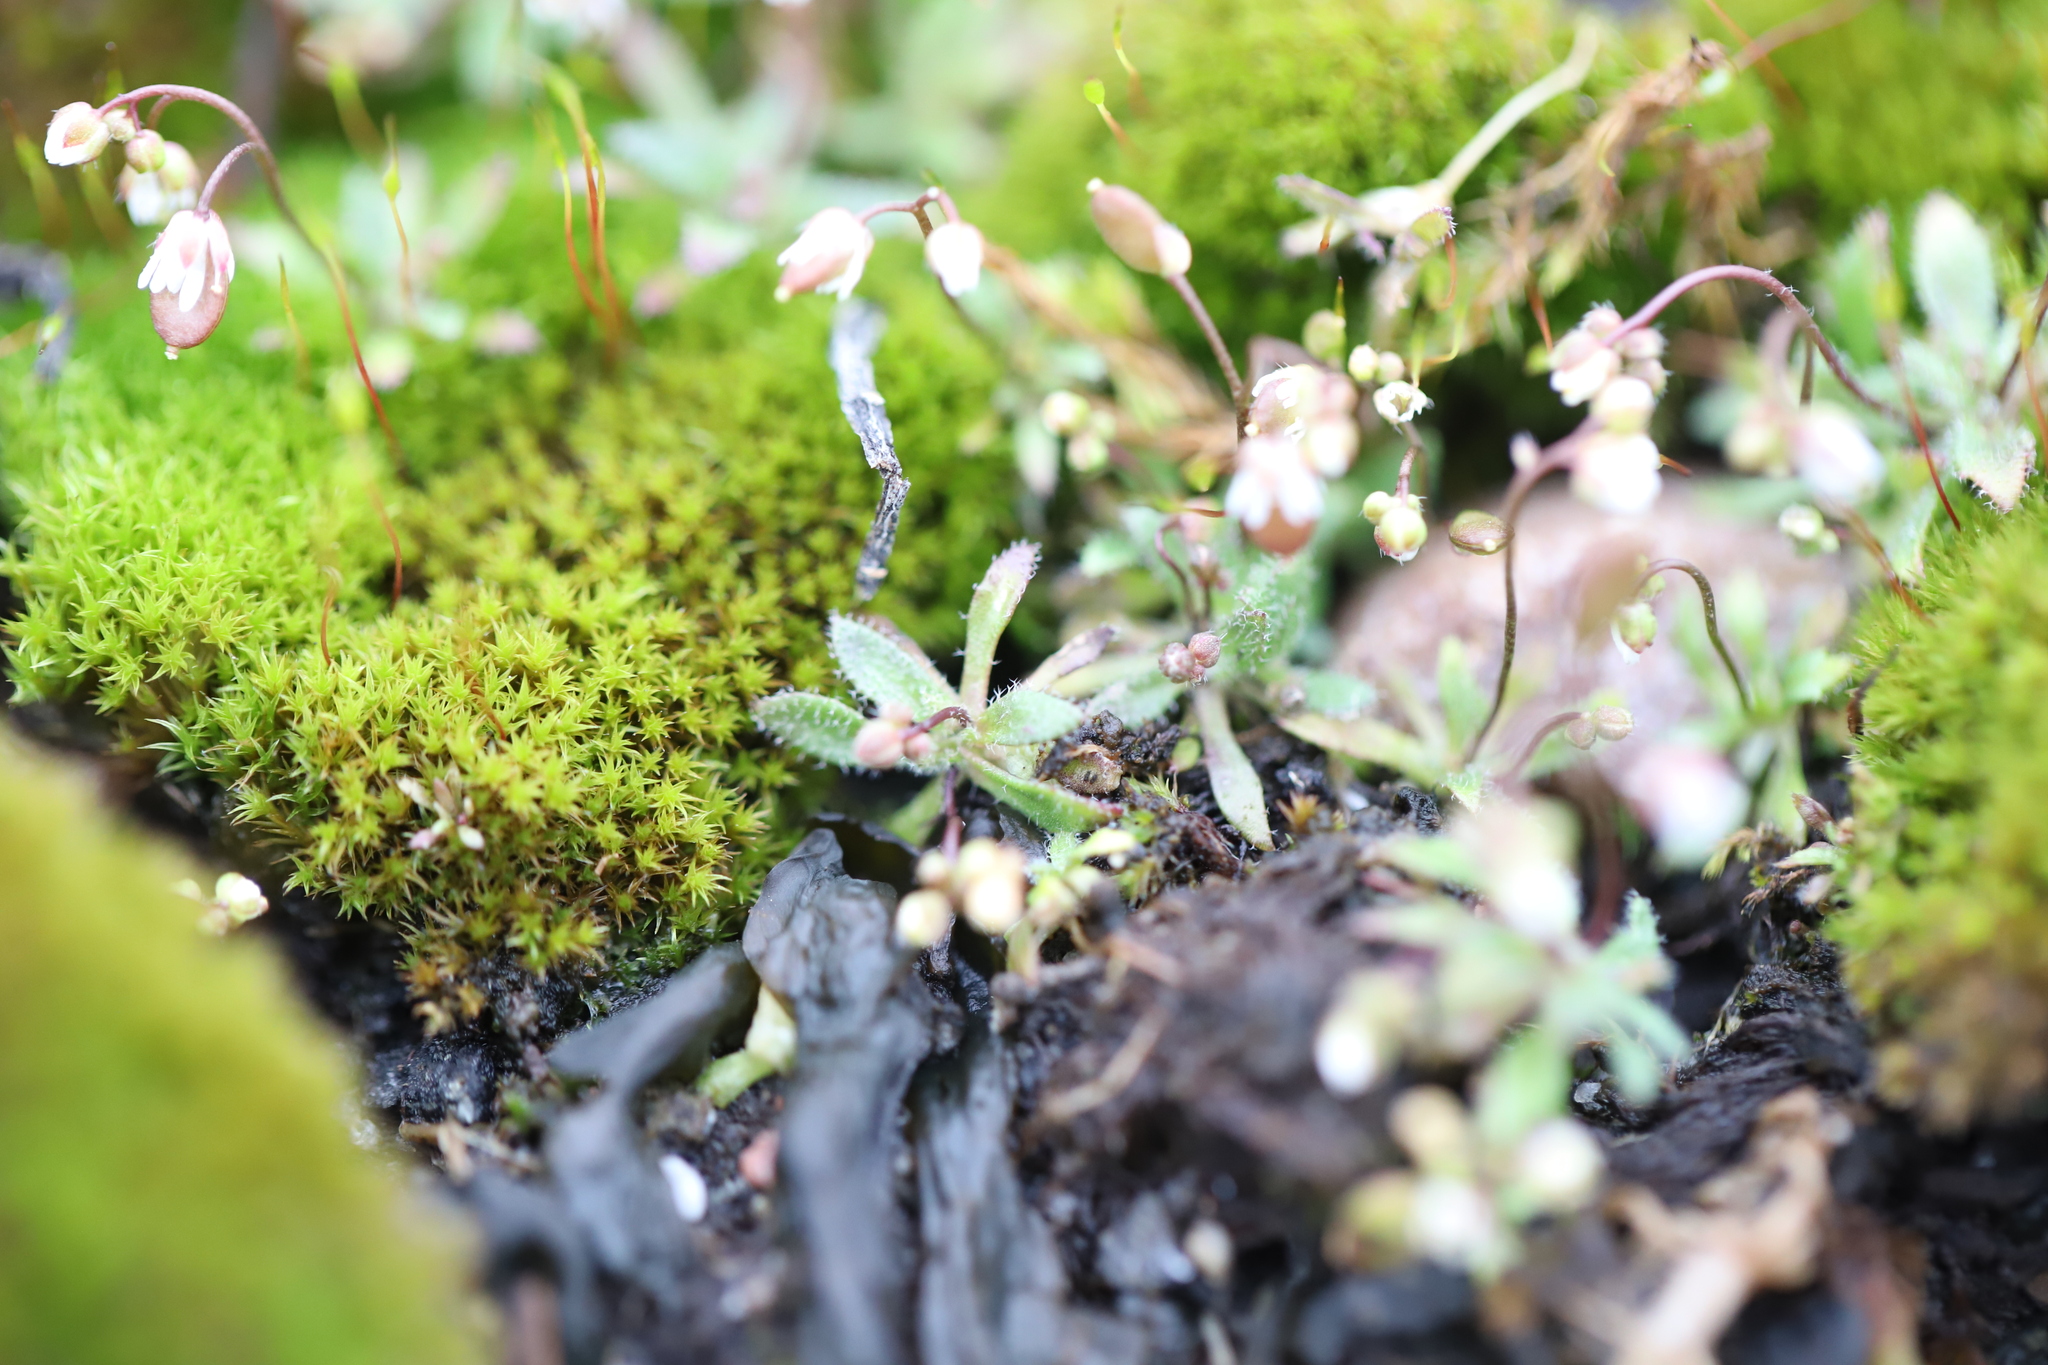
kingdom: Plantae
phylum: Tracheophyta
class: Magnoliopsida
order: Brassicales
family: Brassicaceae
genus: Draba
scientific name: Draba verna
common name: Spring draba
